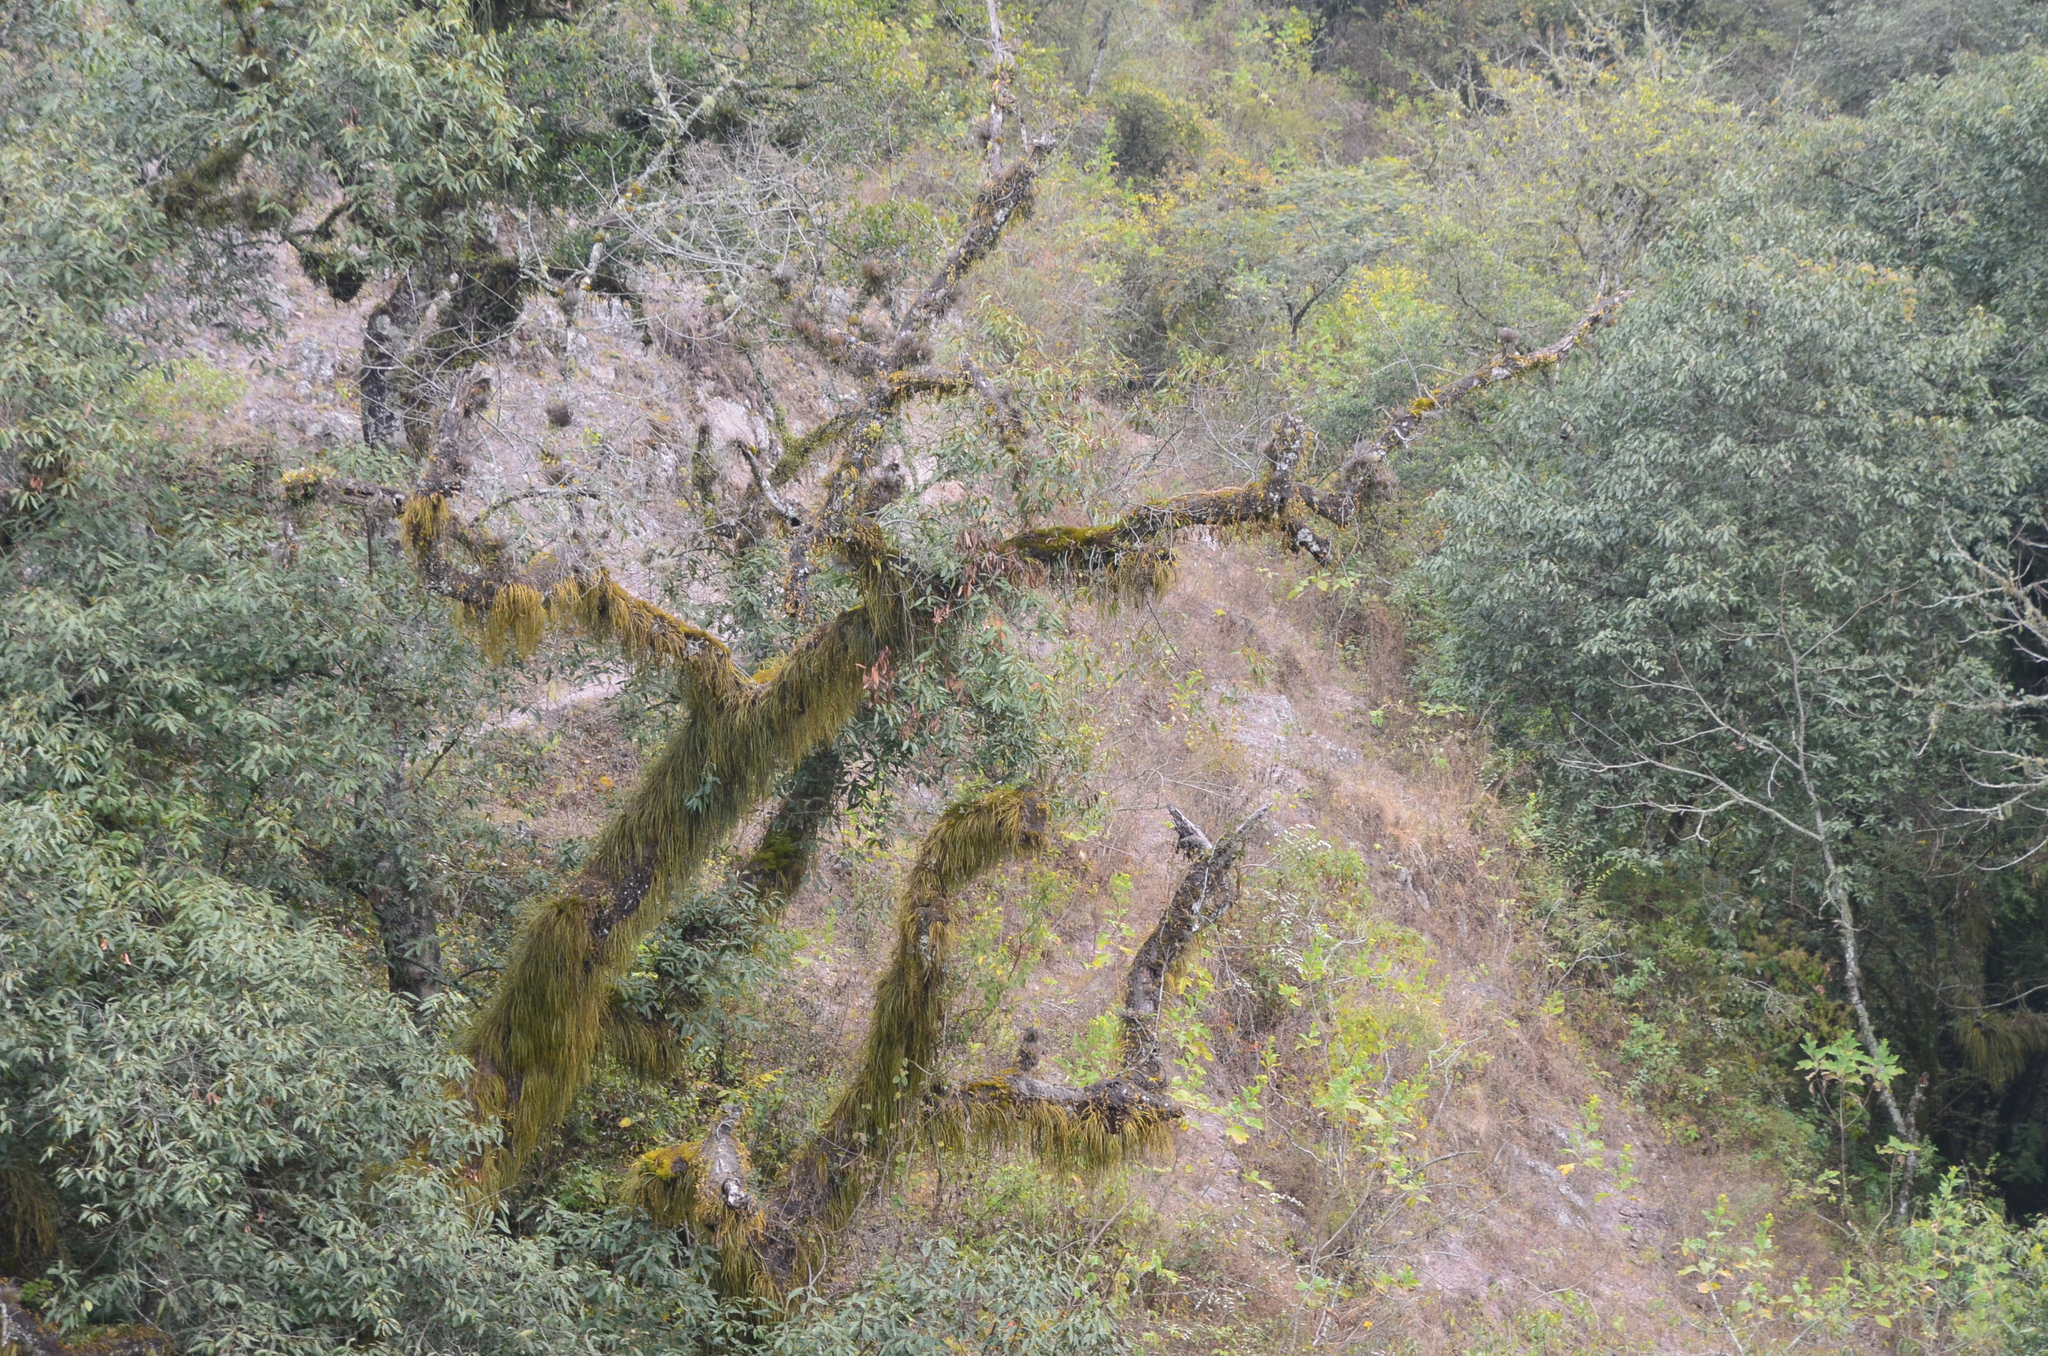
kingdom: Plantae
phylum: Tracheophyta
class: Liliopsida
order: Poales
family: Bromeliaceae
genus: Tillandsia
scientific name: Tillandsia
